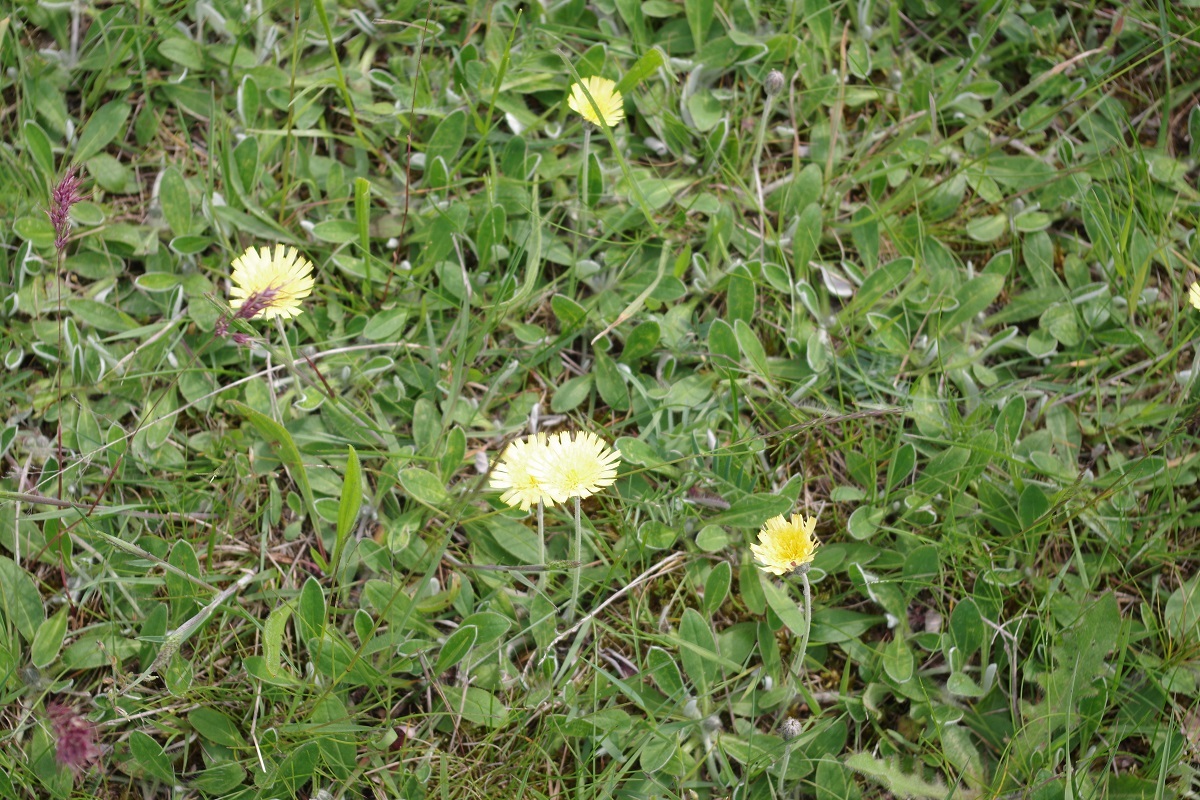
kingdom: Plantae
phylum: Tracheophyta
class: Magnoliopsida
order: Asterales
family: Asteraceae
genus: Pilosella
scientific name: Pilosella officinarum
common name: Mouse-ear hawkweed
